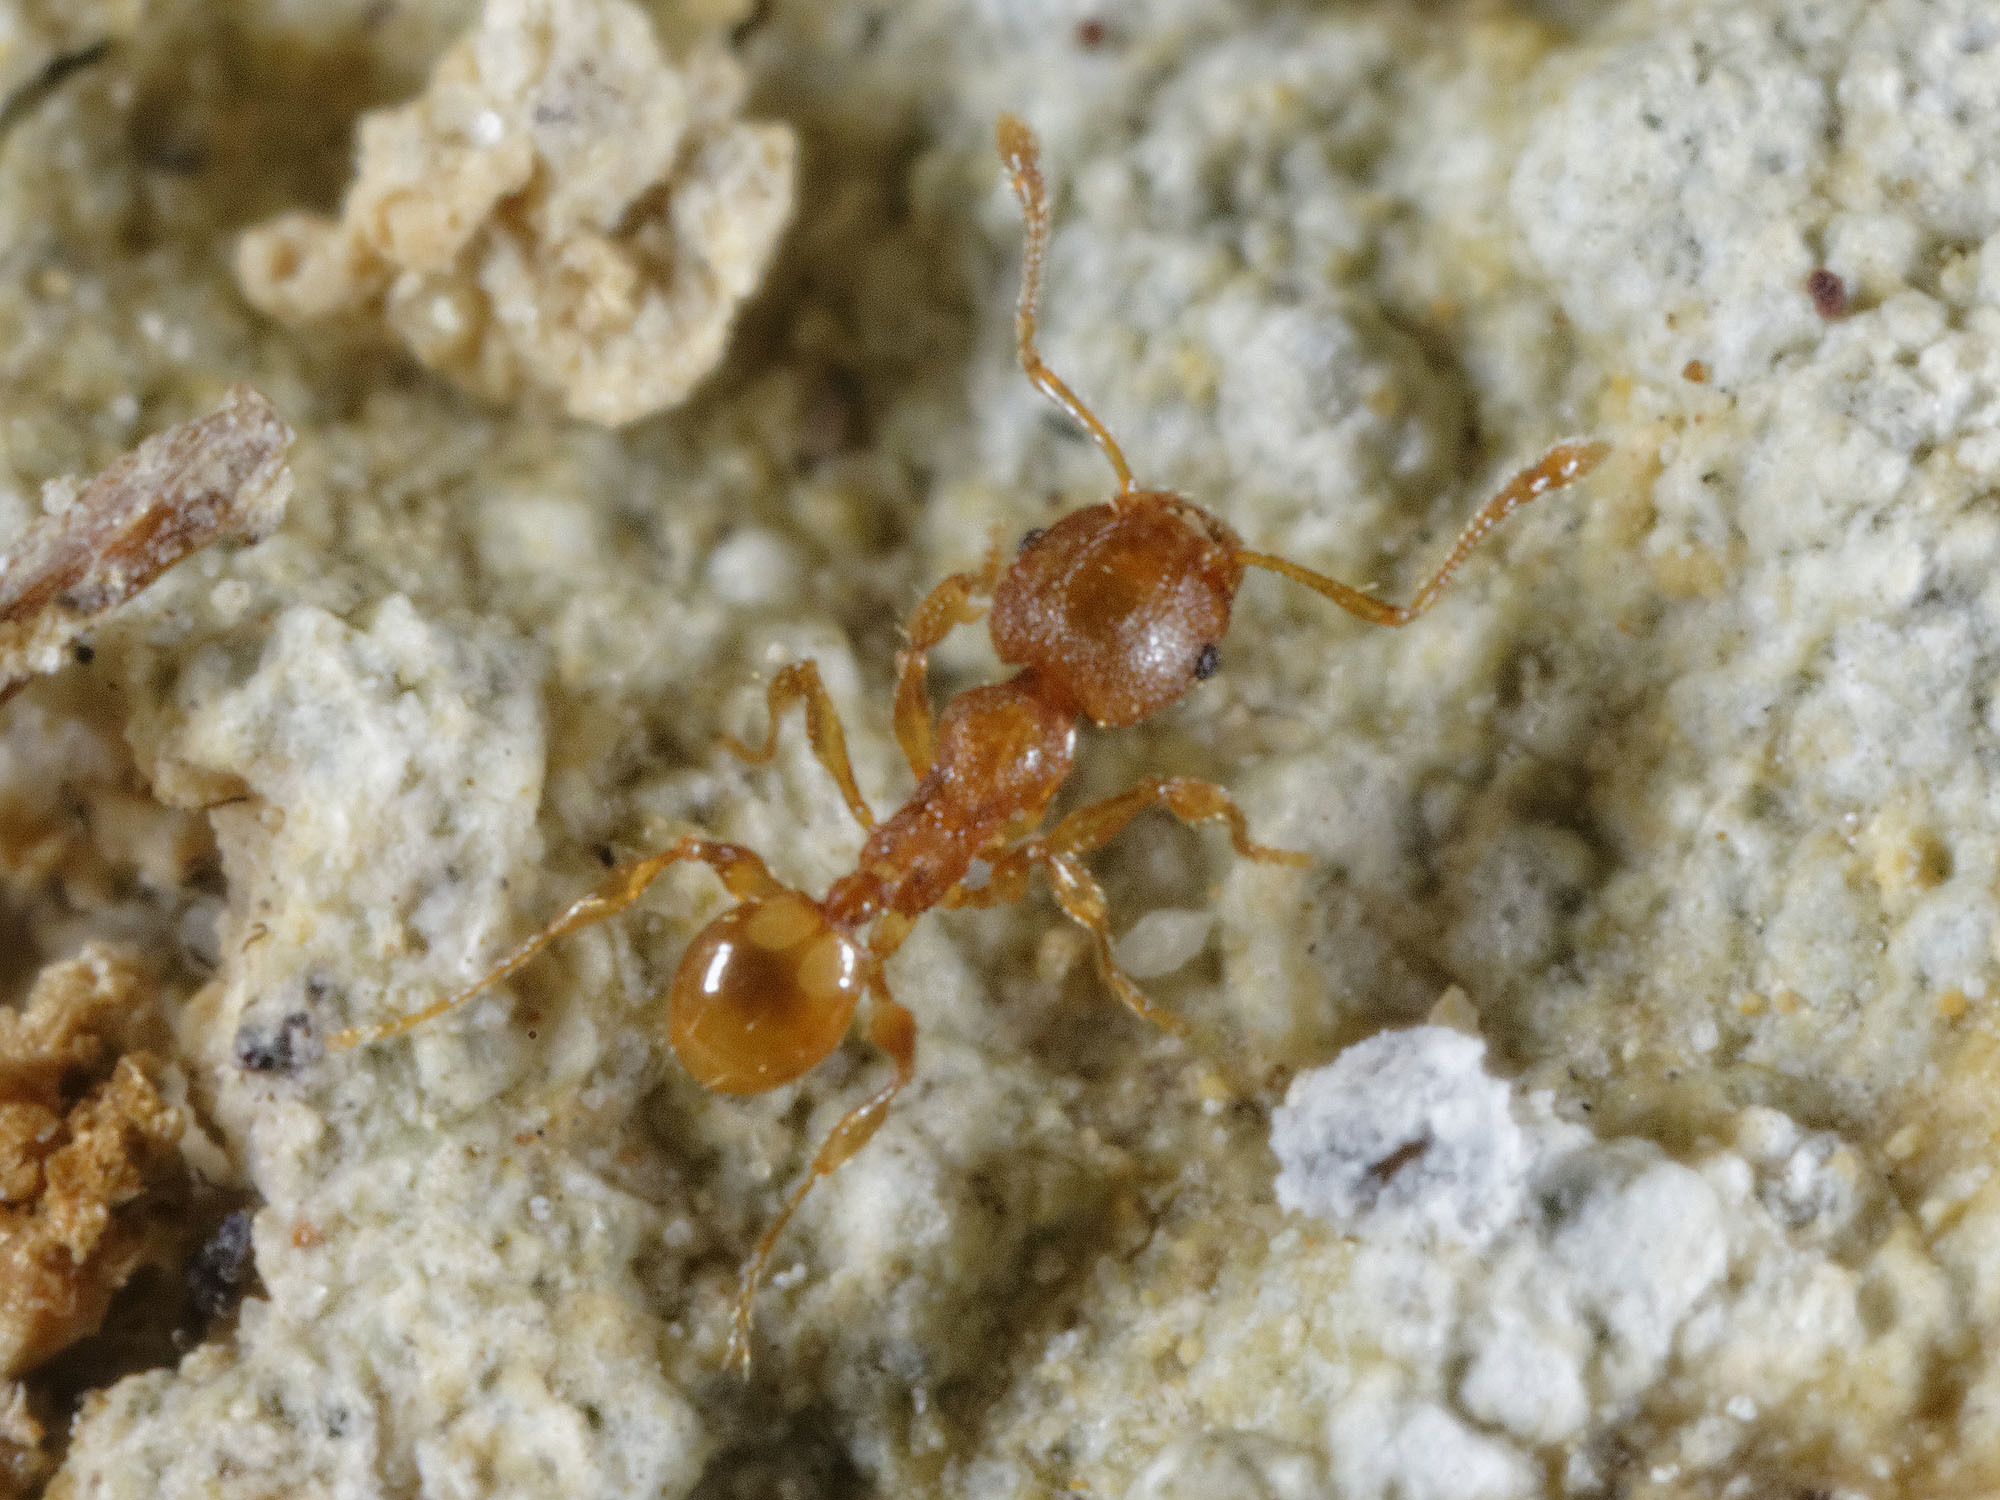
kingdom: Animalia
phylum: Arthropoda
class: Insecta
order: Hymenoptera
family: Formicidae
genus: Pheidole
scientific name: Pheidole rugosula
